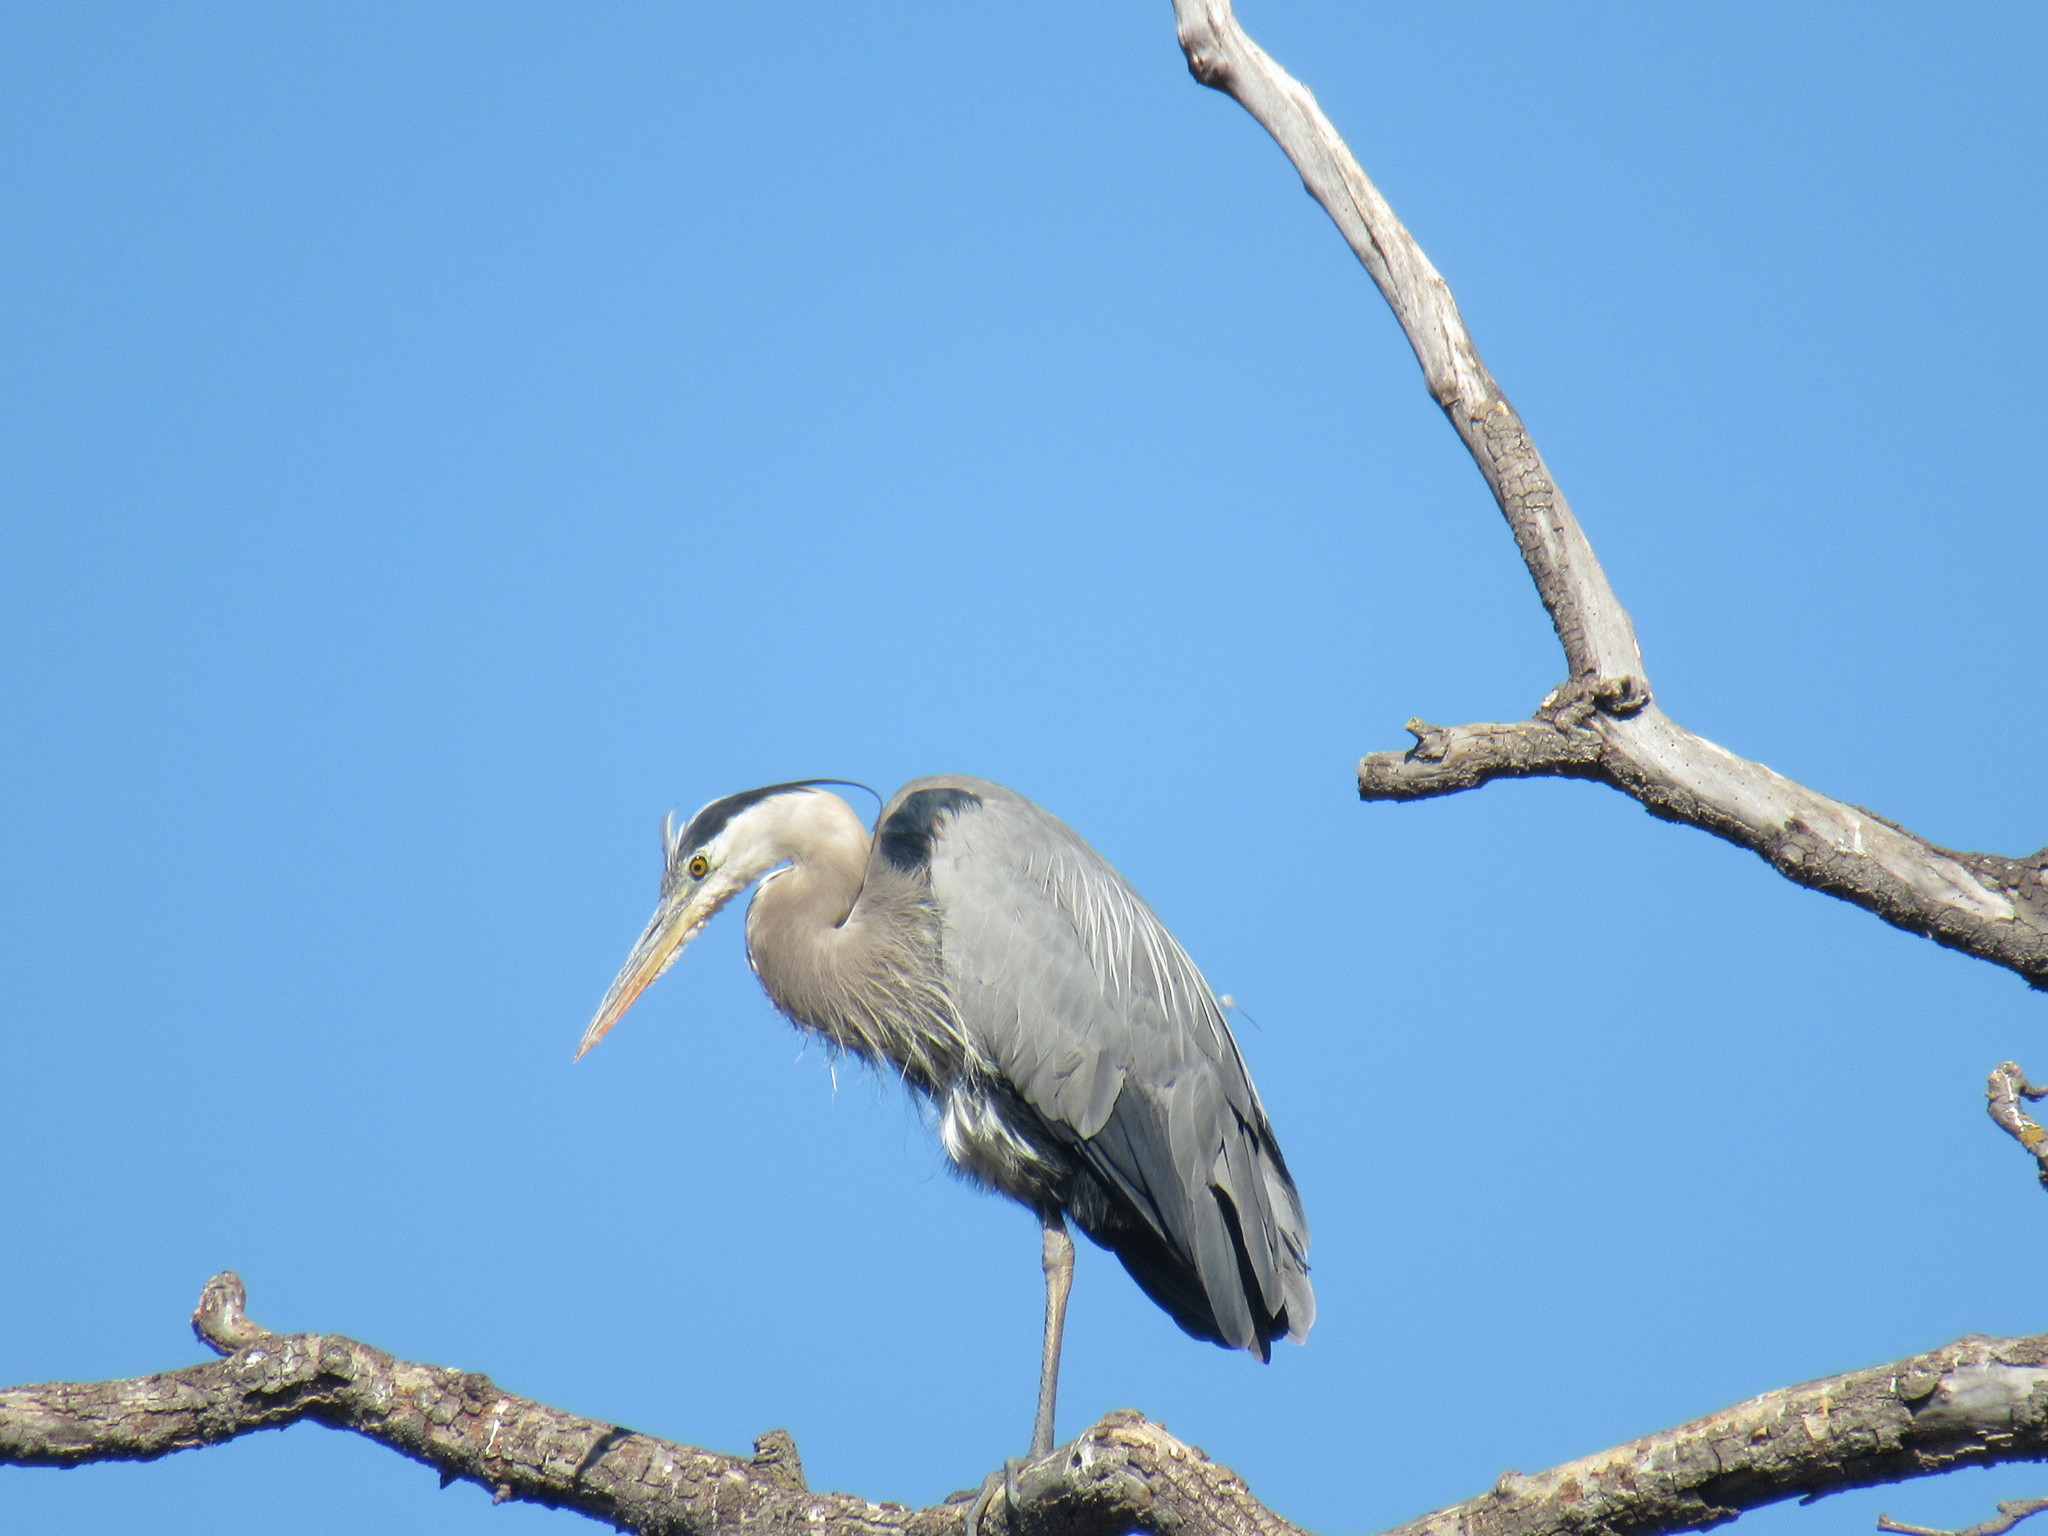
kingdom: Animalia
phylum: Chordata
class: Aves
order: Pelecaniformes
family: Ardeidae
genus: Ardea
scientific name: Ardea herodias
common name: Great blue heron
